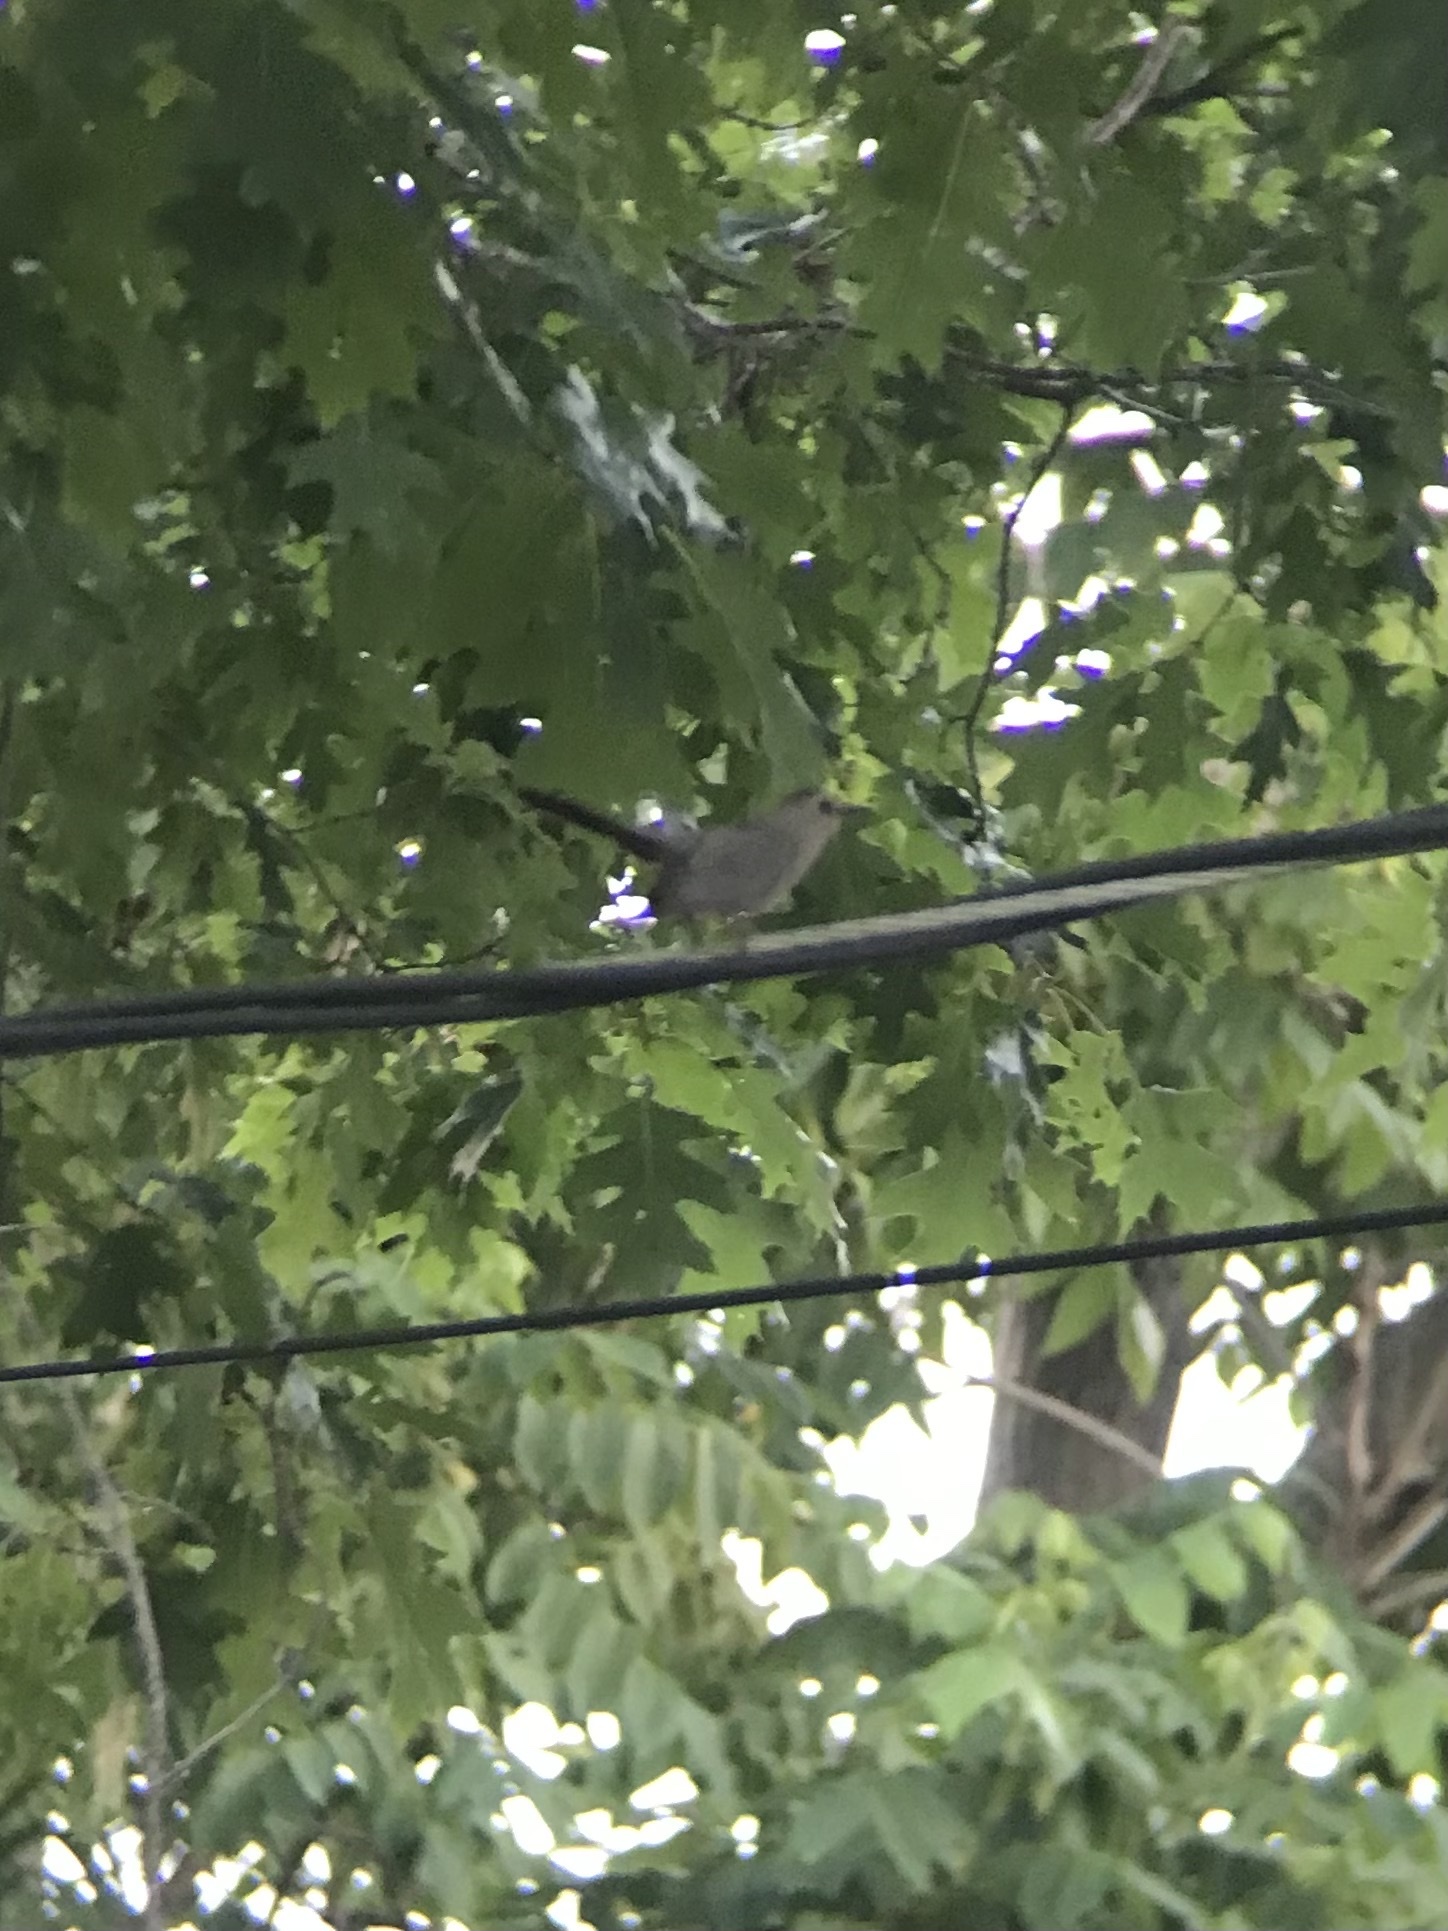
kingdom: Animalia
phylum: Chordata
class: Aves
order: Passeriformes
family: Mimidae
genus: Dumetella
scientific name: Dumetella carolinensis
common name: Gray catbird
